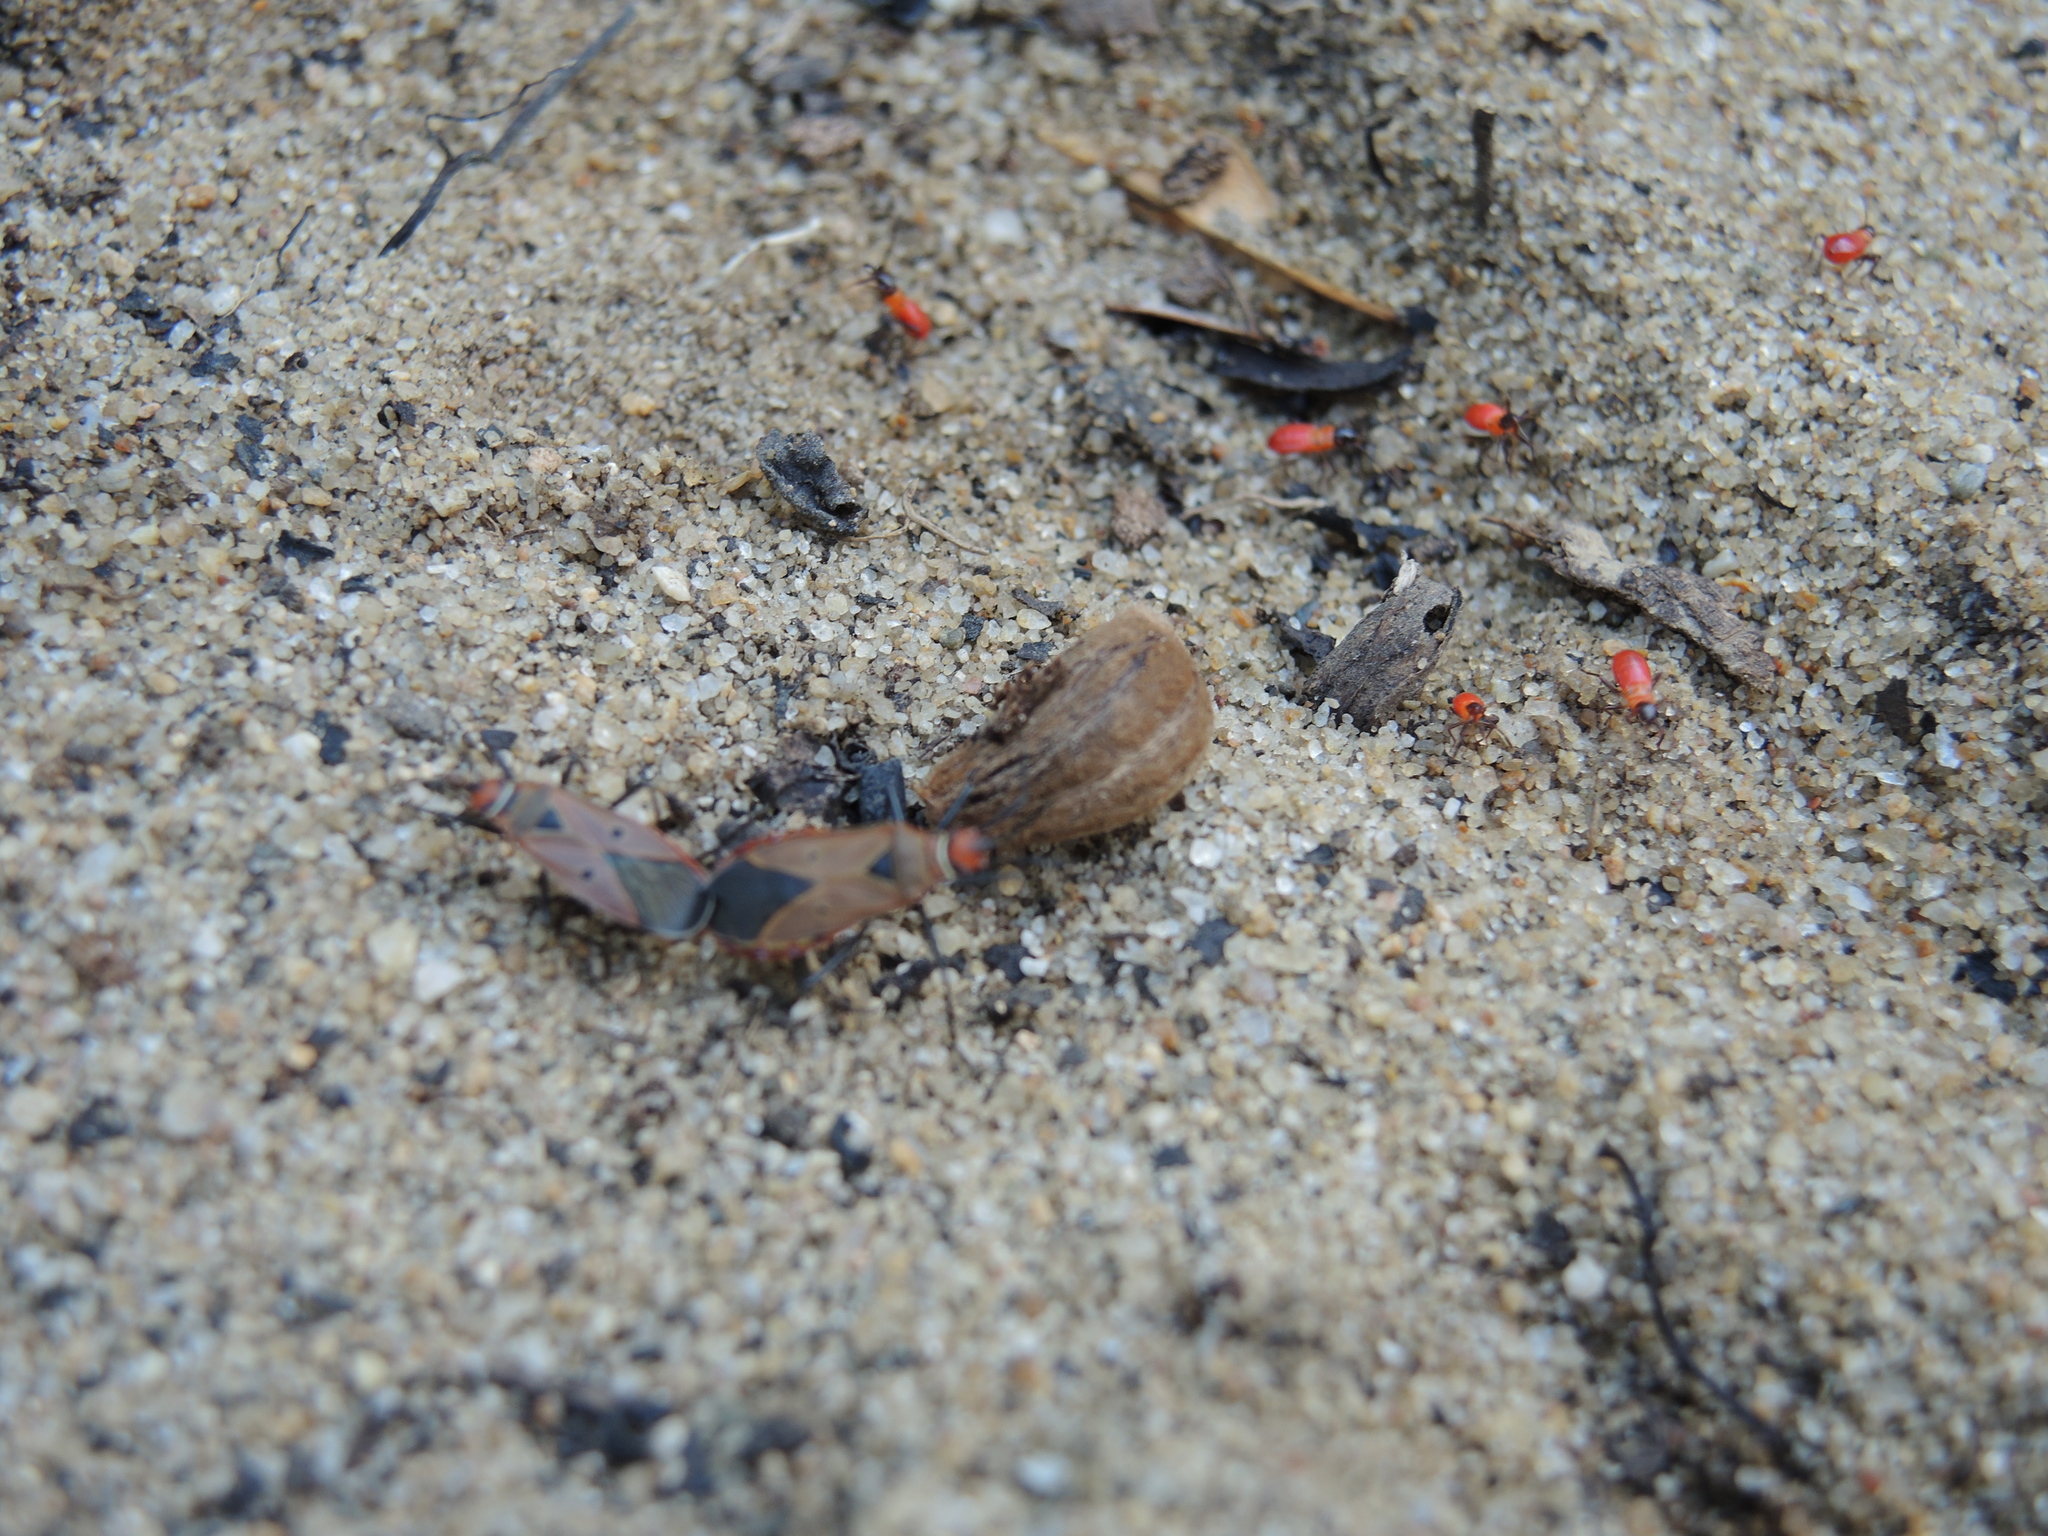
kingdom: Animalia
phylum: Arthropoda
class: Insecta
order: Hemiptera
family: Pyrrhocoridae
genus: Dysdercus
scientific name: Dysdercus sidae
